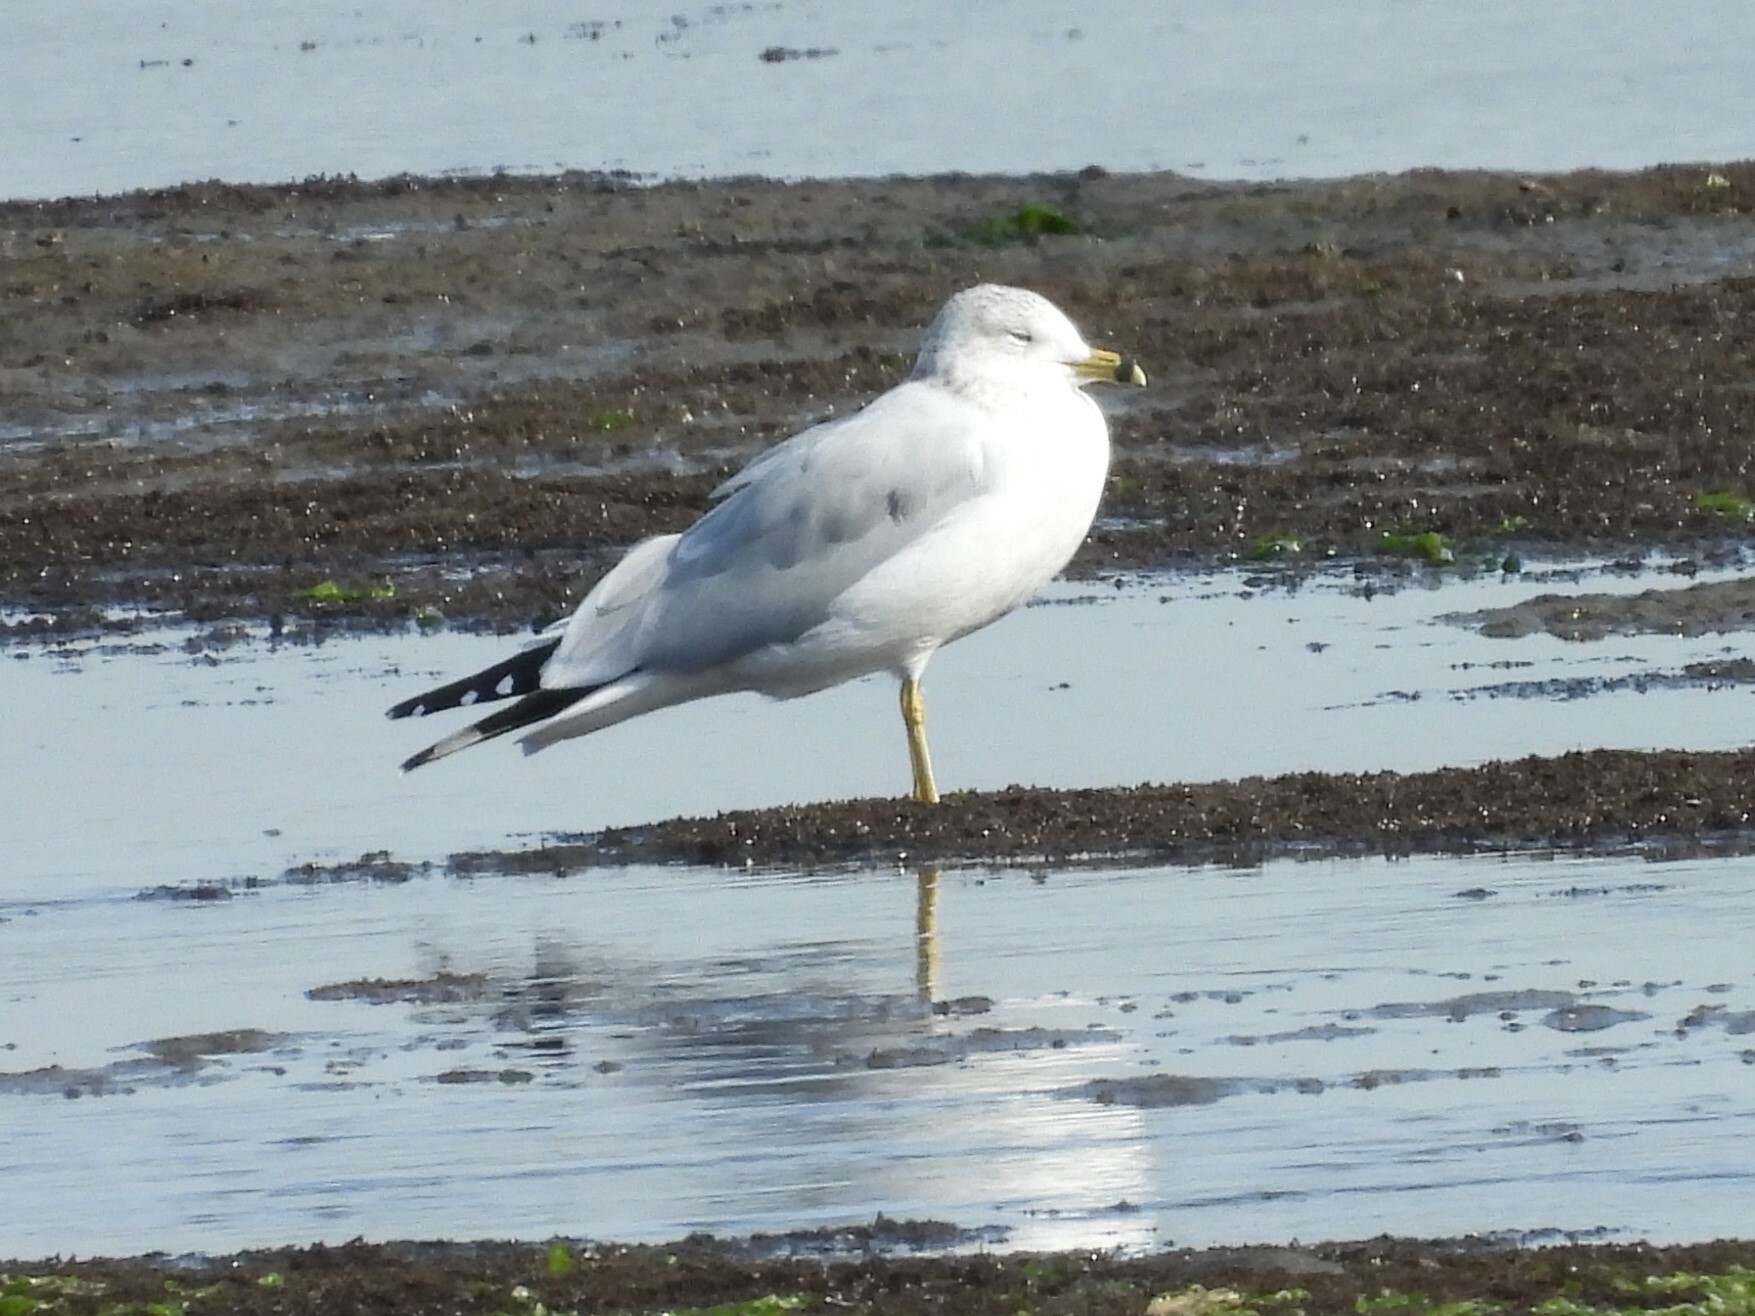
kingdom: Animalia
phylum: Chordata
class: Aves
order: Charadriiformes
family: Laridae
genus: Larus
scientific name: Larus delawarensis
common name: Ring-billed gull
